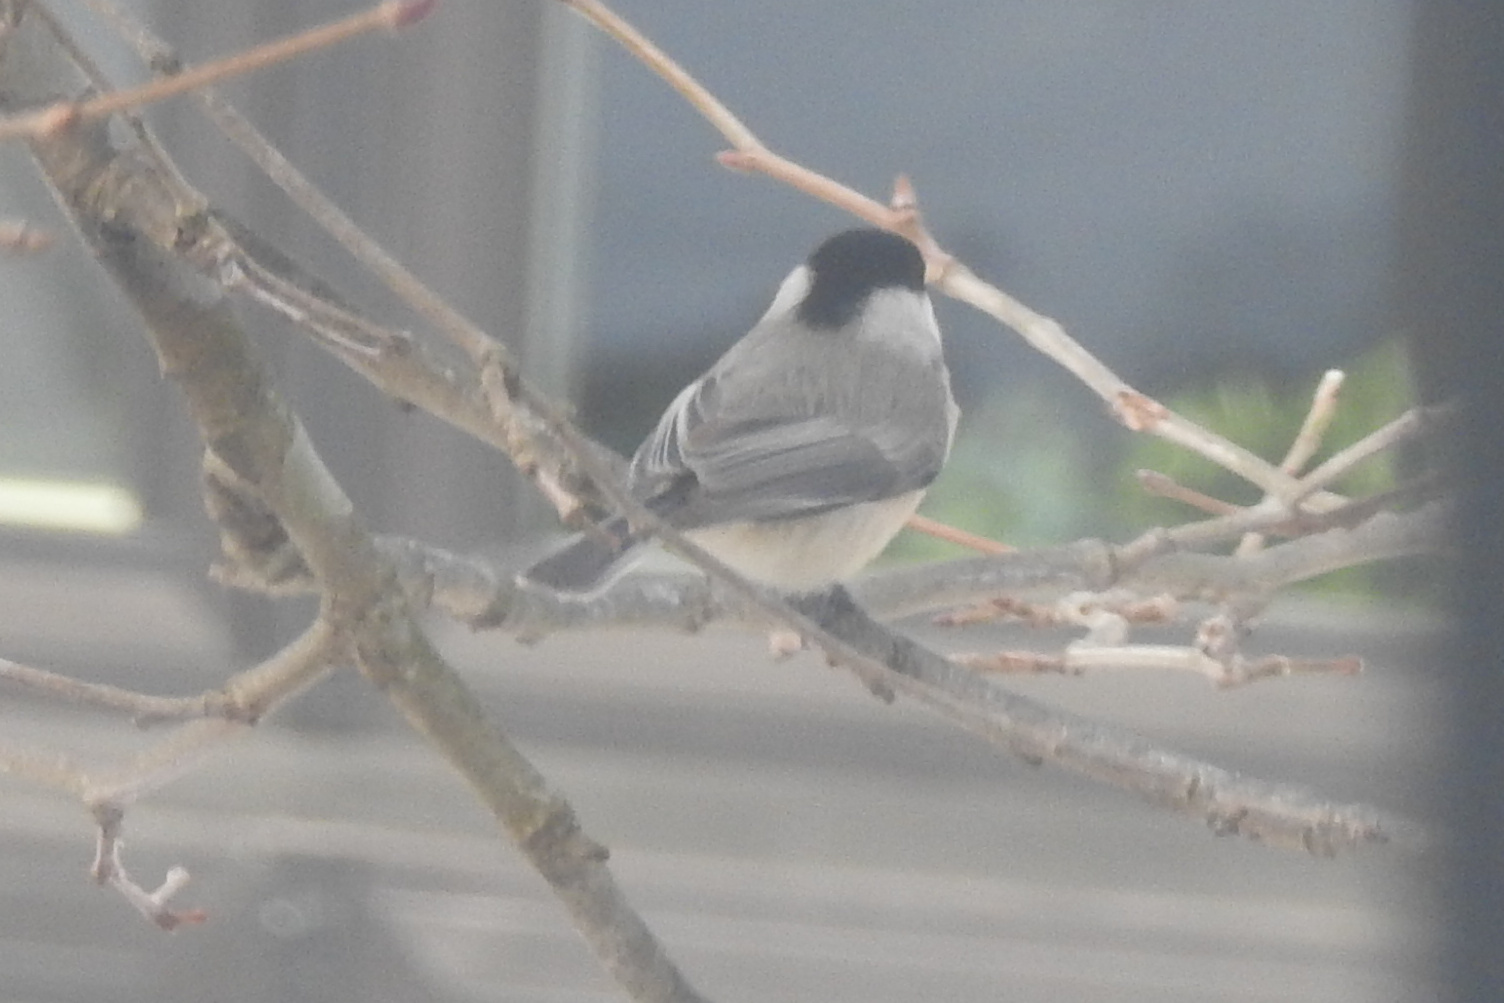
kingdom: Animalia
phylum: Chordata
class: Aves
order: Passeriformes
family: Paridae
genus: Poecile
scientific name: Poecile carolinensis
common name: Carolina chickadee
